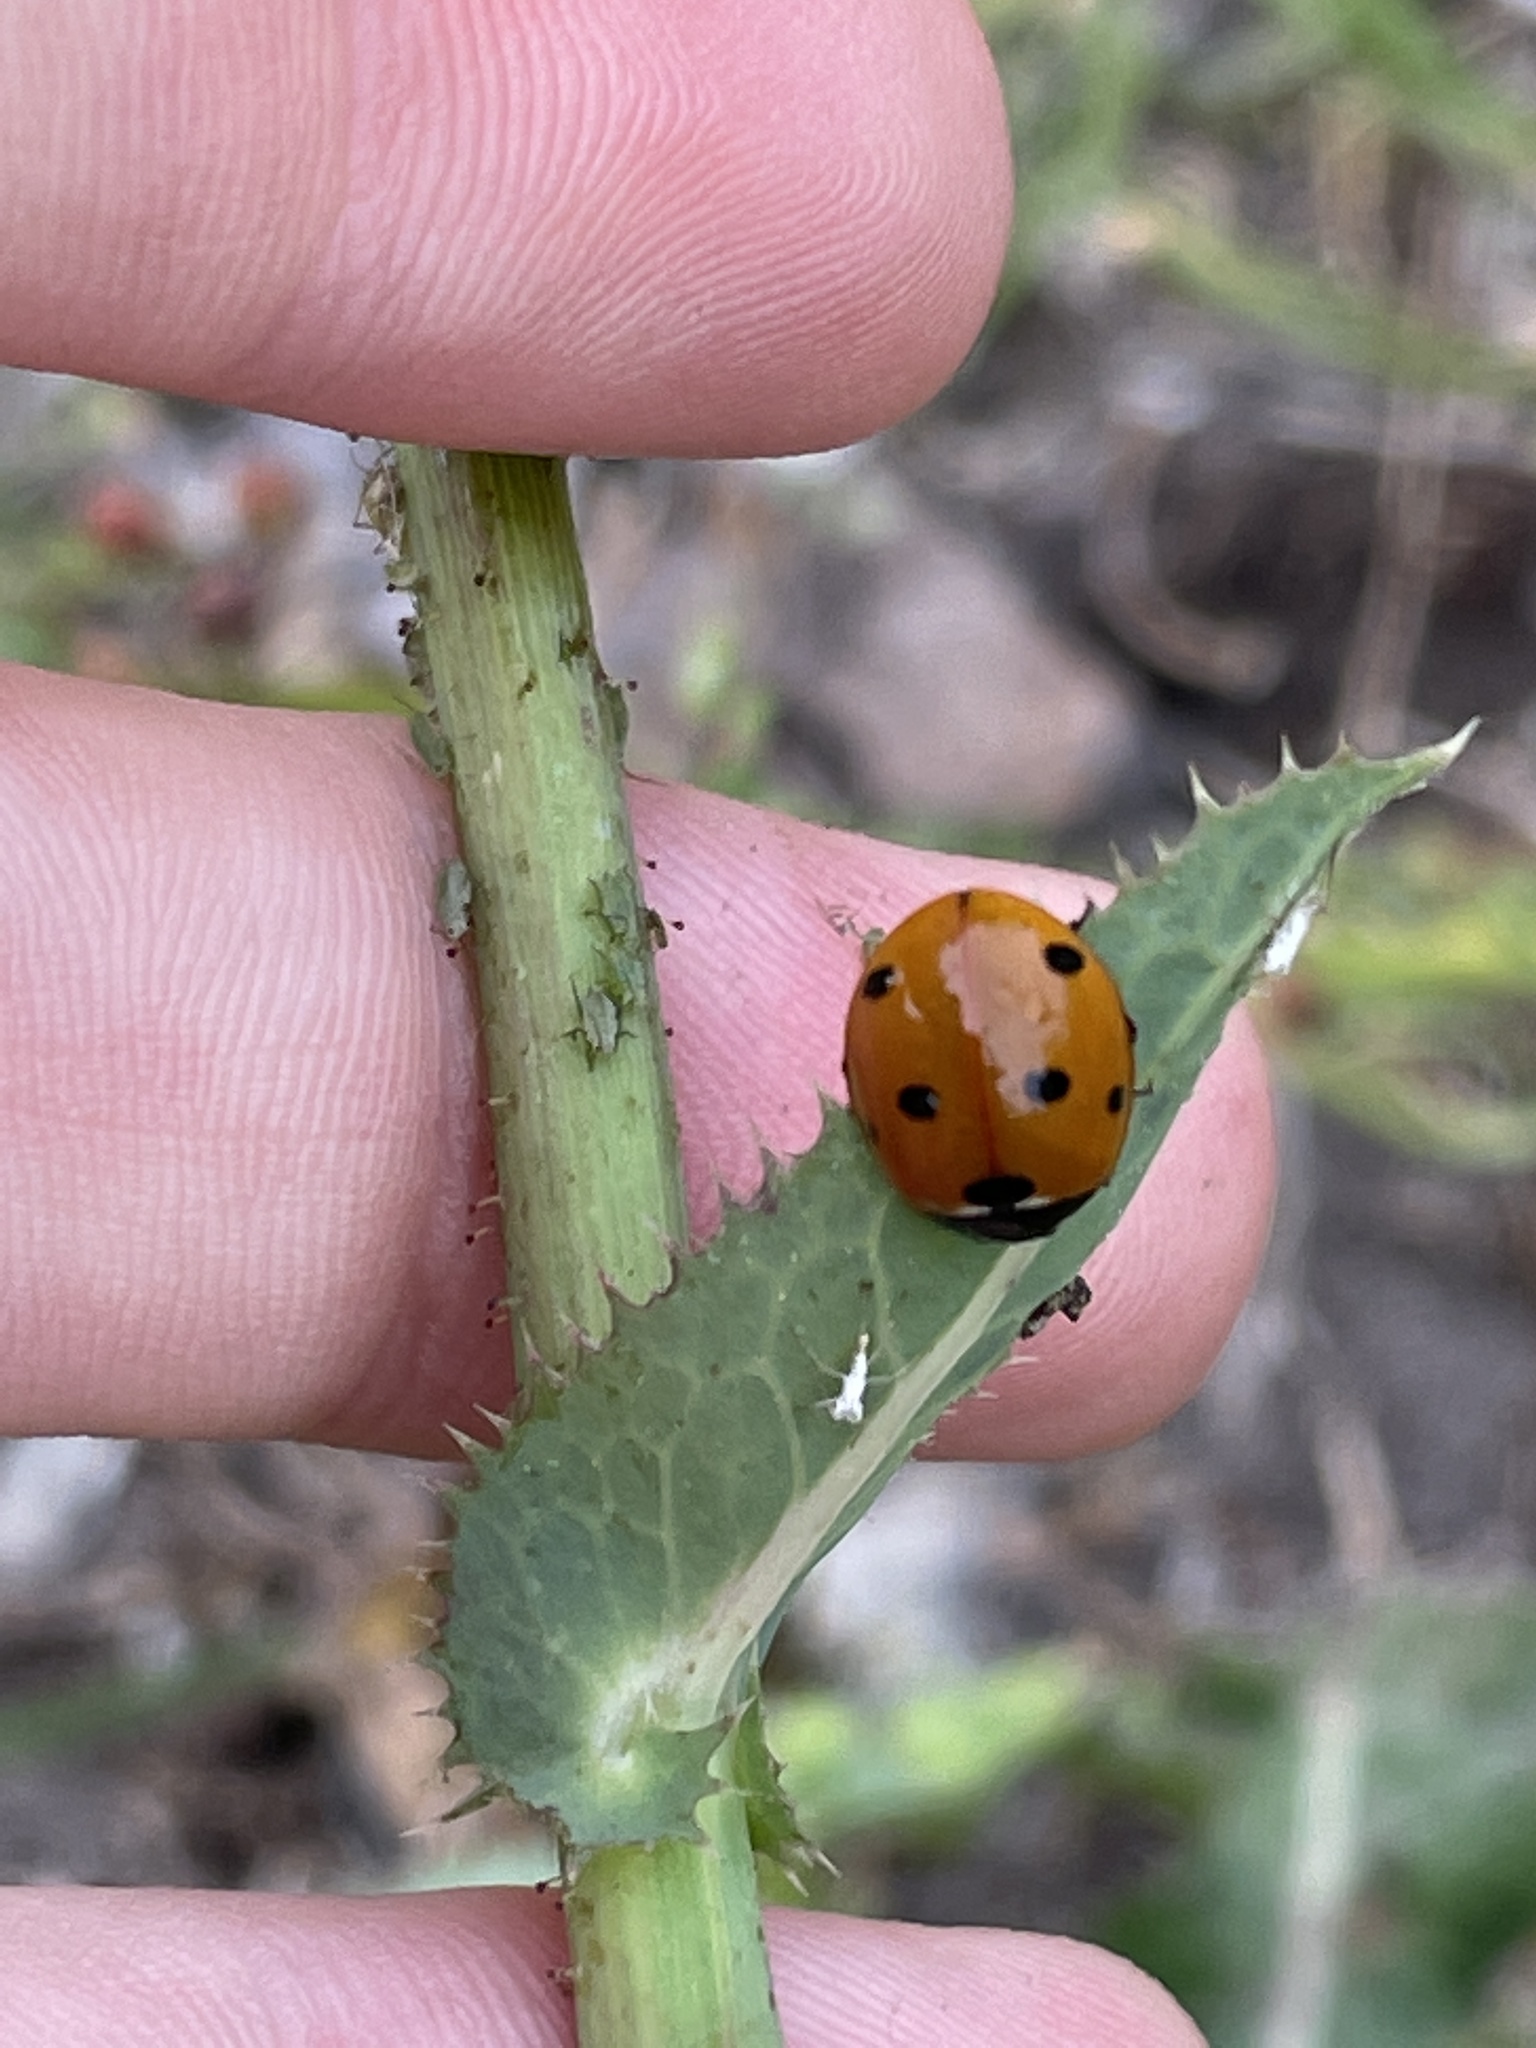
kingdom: Animalia
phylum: Arthropoda
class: Insecta
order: Coleoptera
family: Coccinellidae
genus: Coccinella
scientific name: Coccinella septempunctata
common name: Sevenspotted lady beetle
